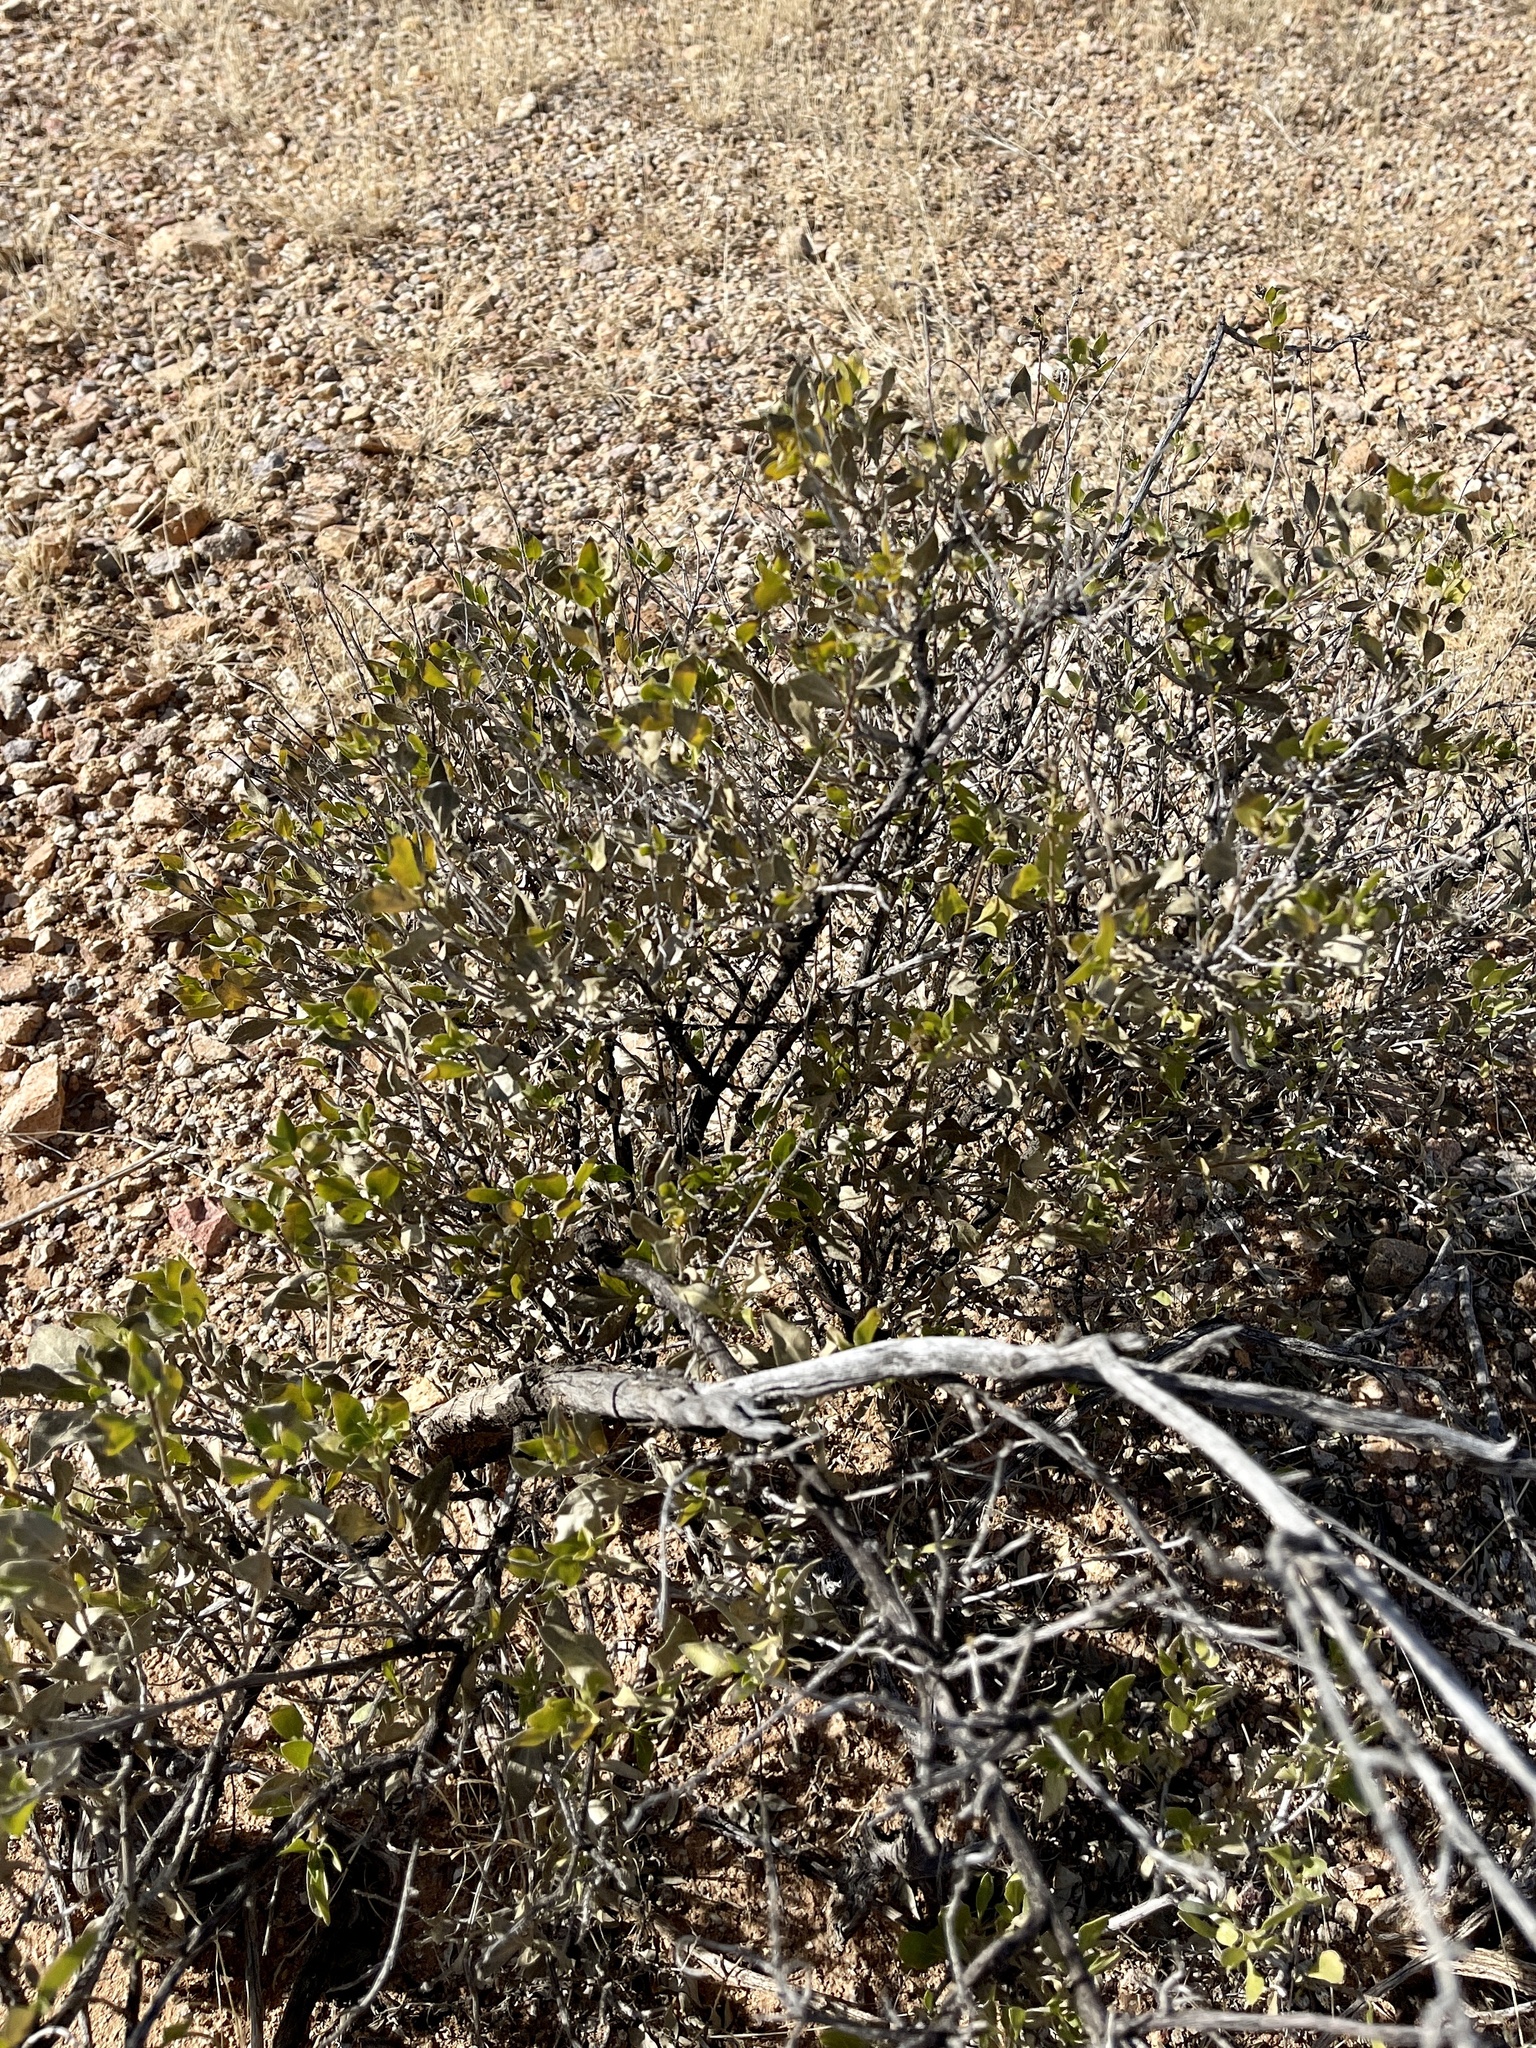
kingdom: Plantae
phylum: Tracheophyta
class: Magnoliopsida
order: Asterales
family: Asteraceae
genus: Flourensia
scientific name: Flourensia cernua
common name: Varnishbush
